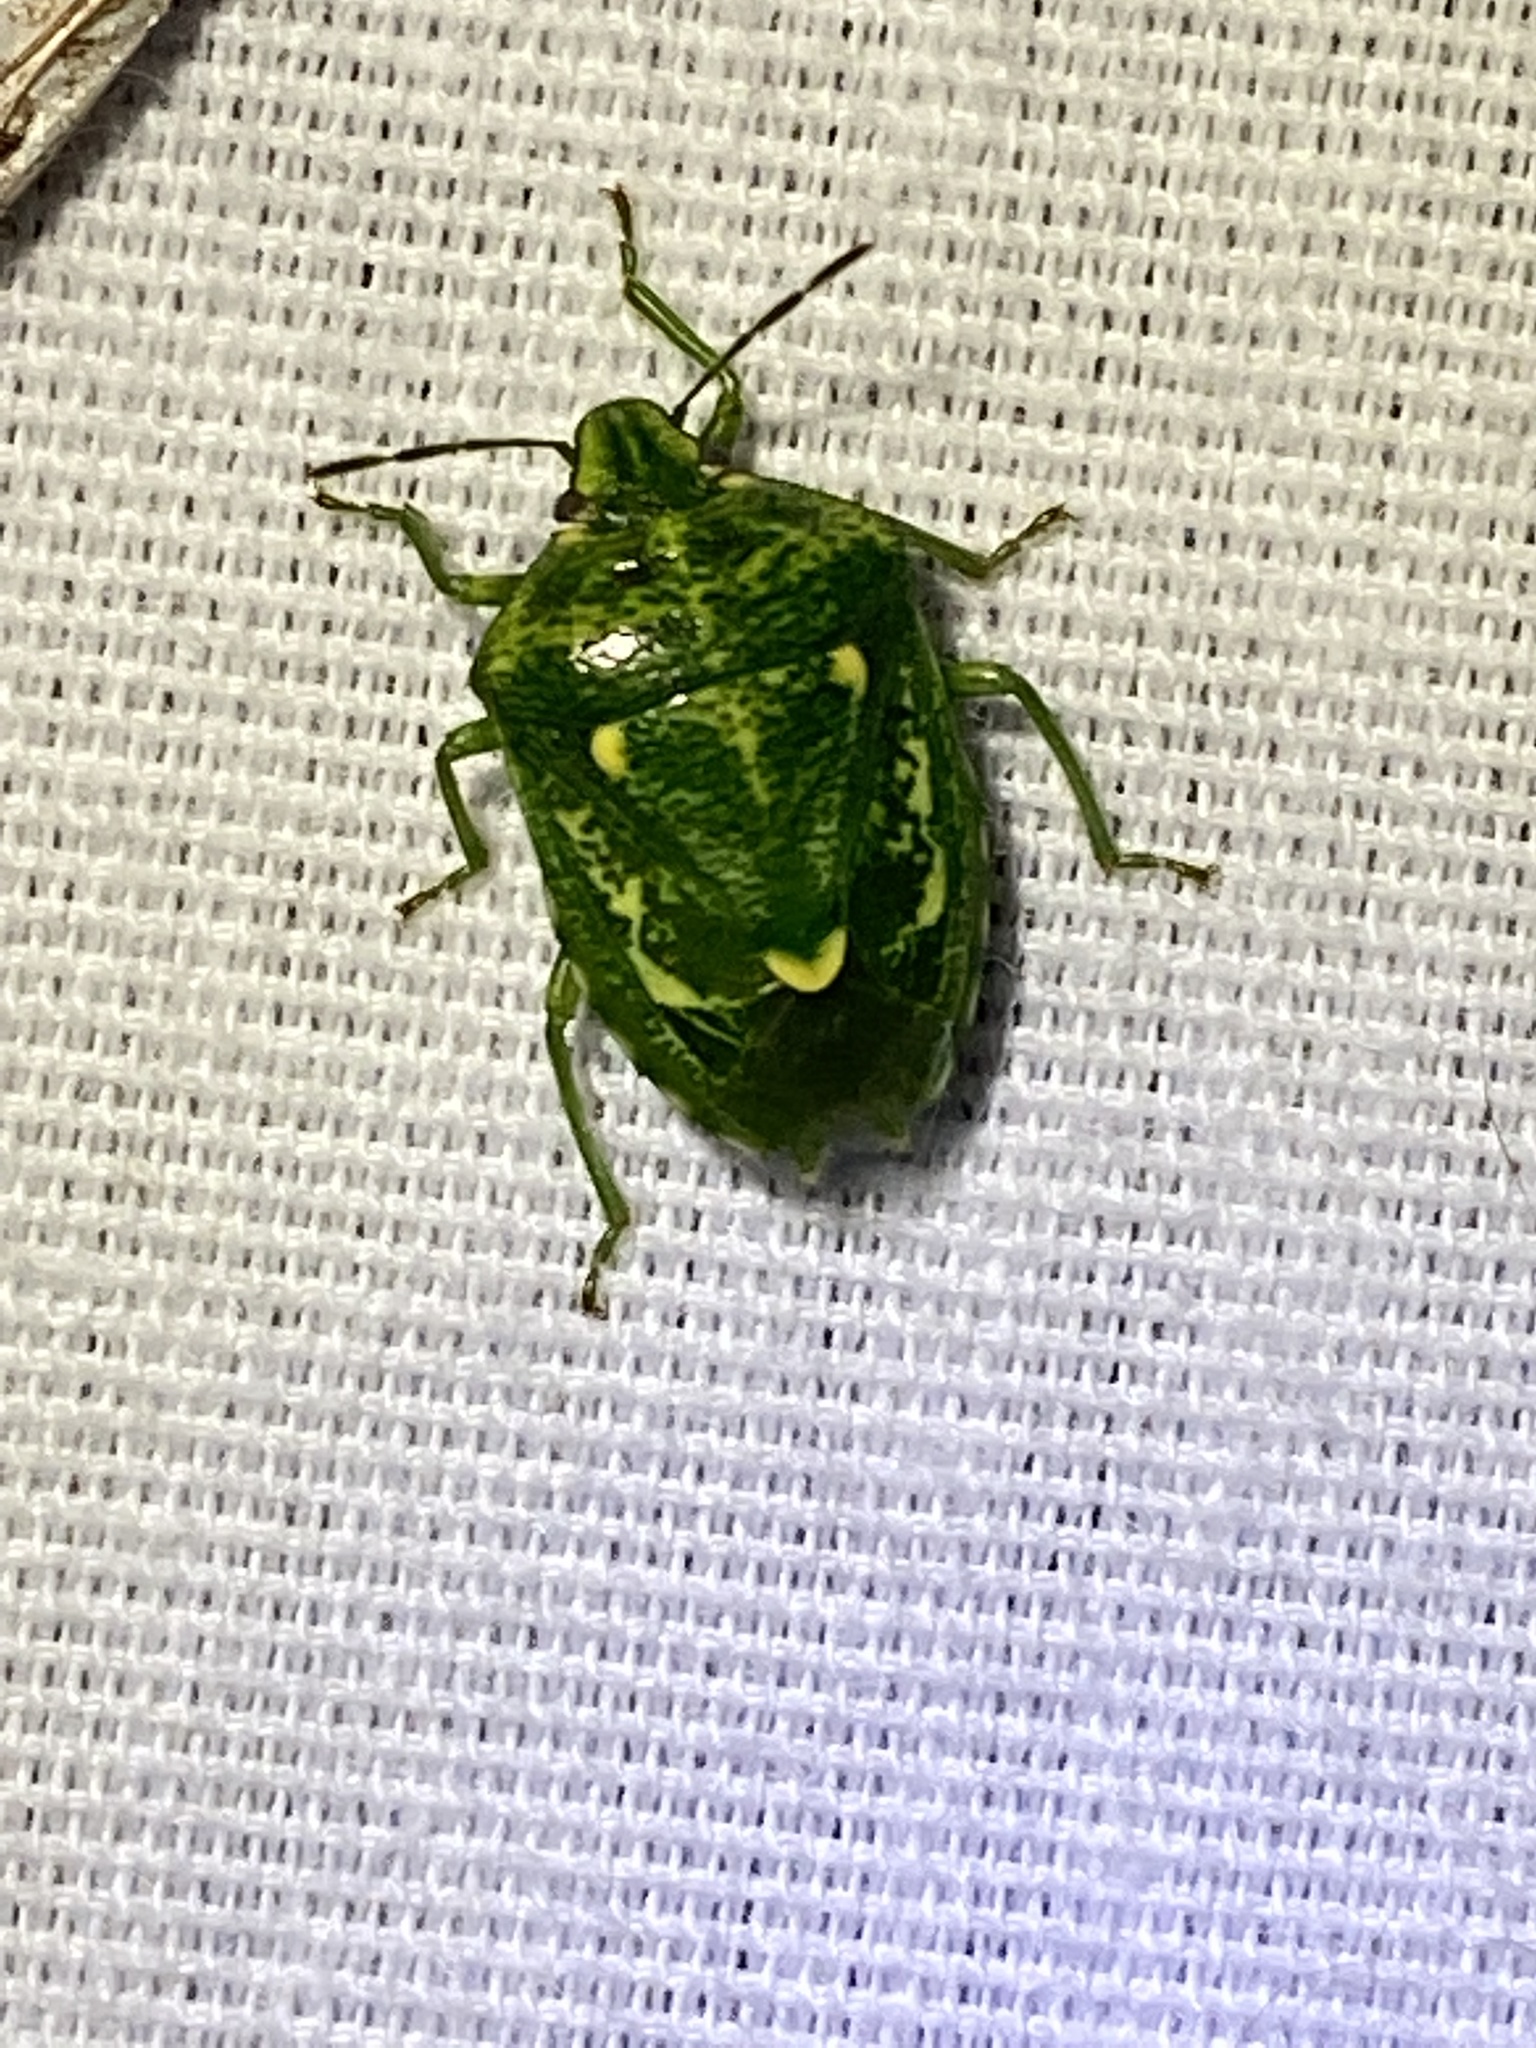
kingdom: Animalia
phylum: Arthropoda
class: Insecta
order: Hemiptera
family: Pentatomidae
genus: Banasa
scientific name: Banasa euchlora
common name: Cedar berry bug
